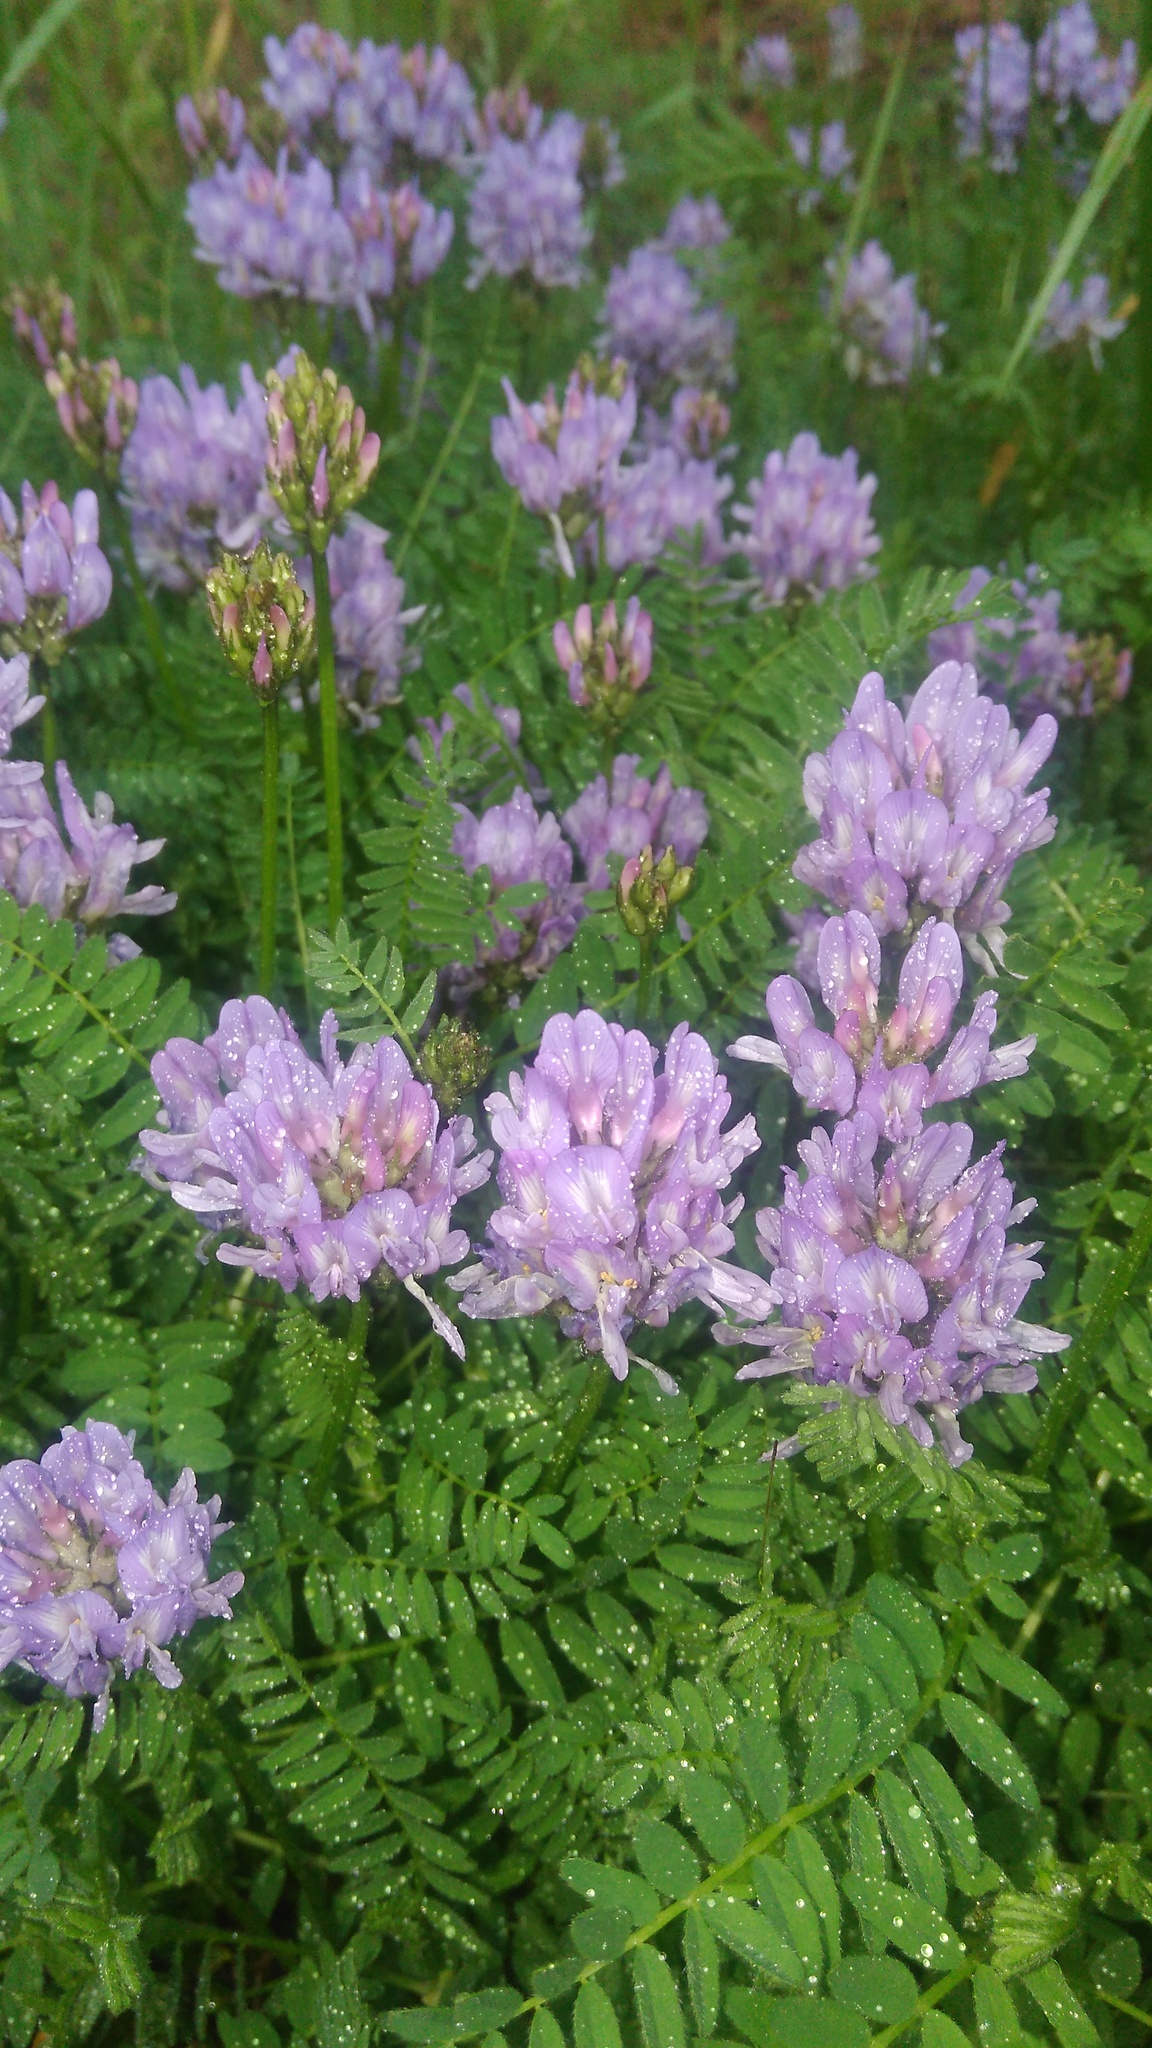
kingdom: Plantae
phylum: Tracheophyta
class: Magnoliopsida
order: Fabales
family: Fabaceae
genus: Astragalus
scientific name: Astragalus danicus
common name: Purple milk-vetch
